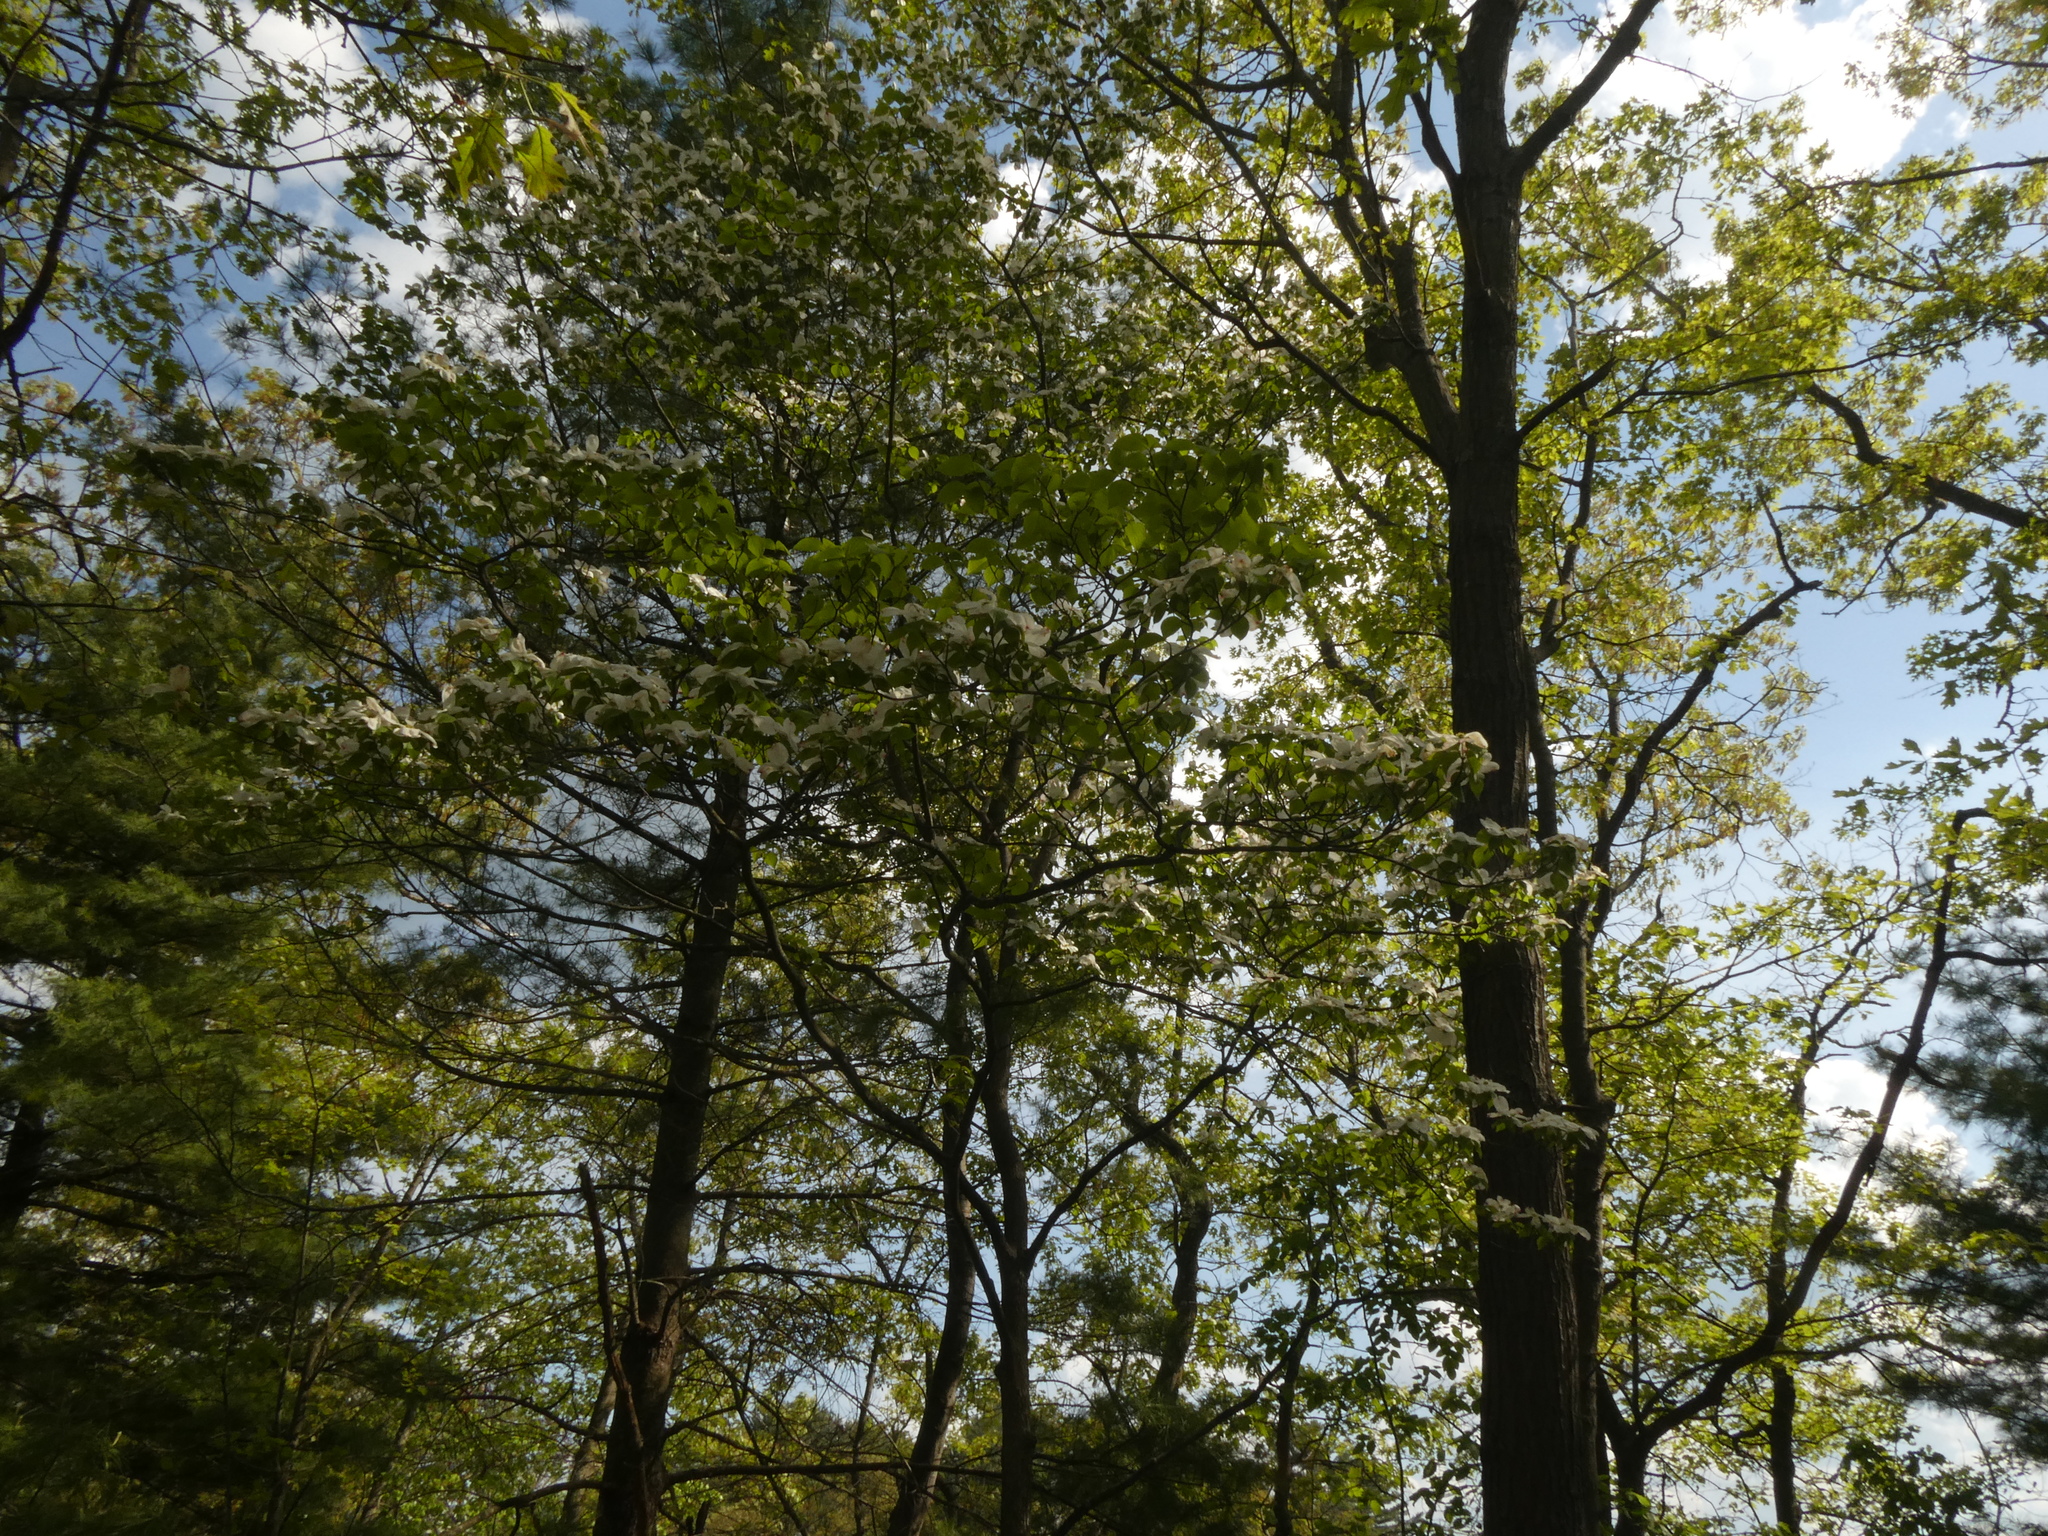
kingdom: Plantae
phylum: Tracheophyta
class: Magnoliopsida
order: Cornales
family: Cornaceae
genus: Cornus
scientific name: Cornus florida
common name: Flowering dogwood
